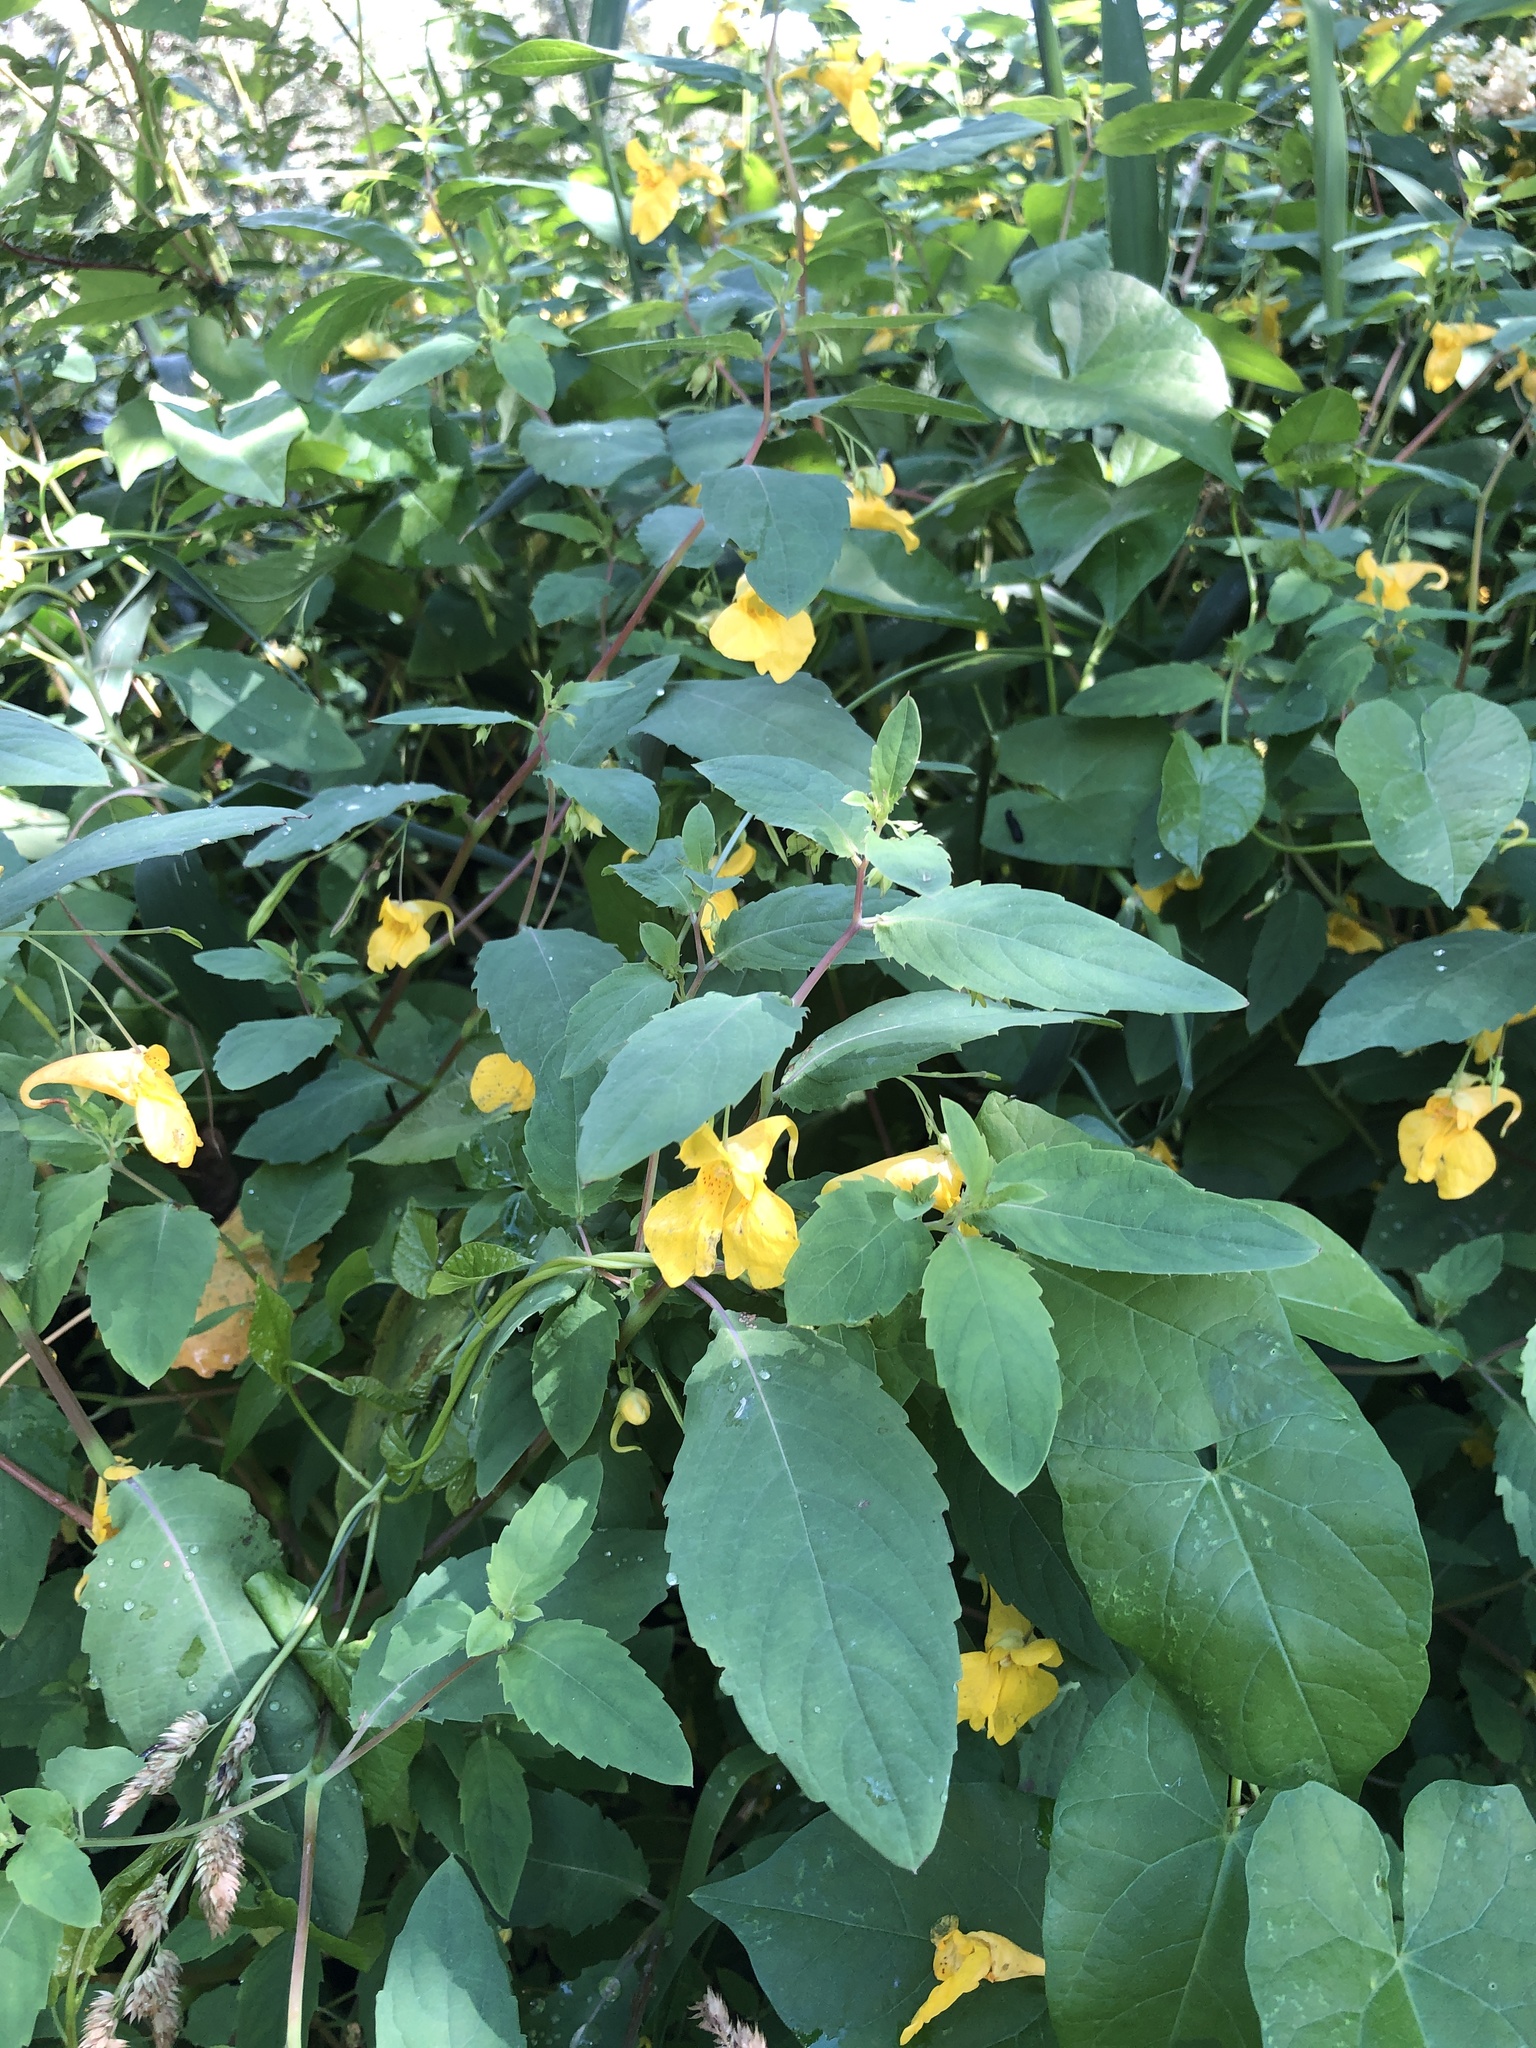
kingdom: Plantae
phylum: Tracheophyta
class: Magnoliopsida
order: Ericales
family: Balsaminaceae
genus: Impatiens
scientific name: Impatiens noli-tangere
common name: Touch-me-not balsam
